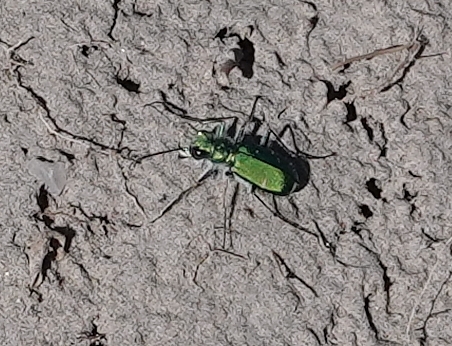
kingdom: Animalia
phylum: Arthropoda
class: Insecta
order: Coleoptera
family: Carabidae
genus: Cicindela
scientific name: Cicindela denverensis
